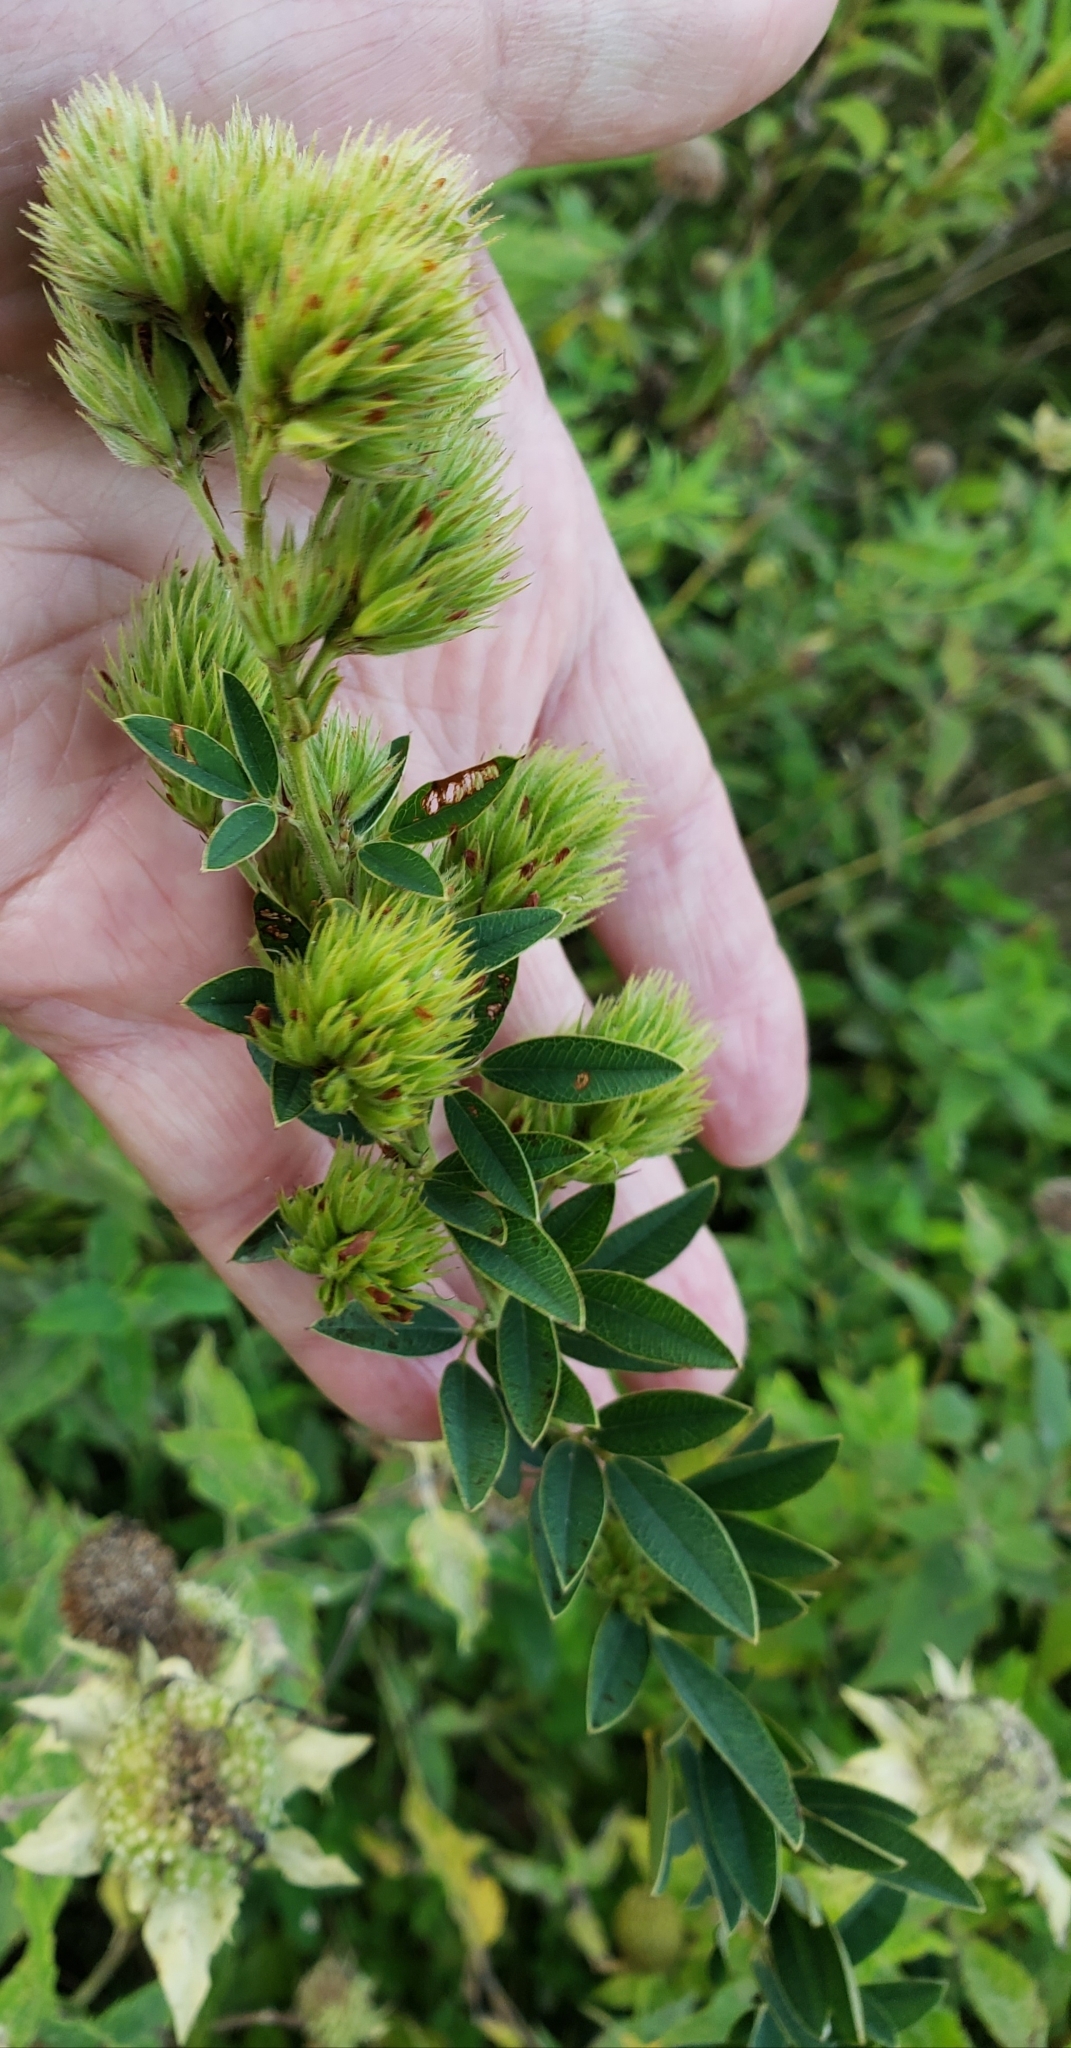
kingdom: Plantae
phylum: Tracheophyta
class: Magnoliopsida
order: Fabales
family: Fabaceae
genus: Lespedeza
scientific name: Lespedeza capitata
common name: Dusty clover
